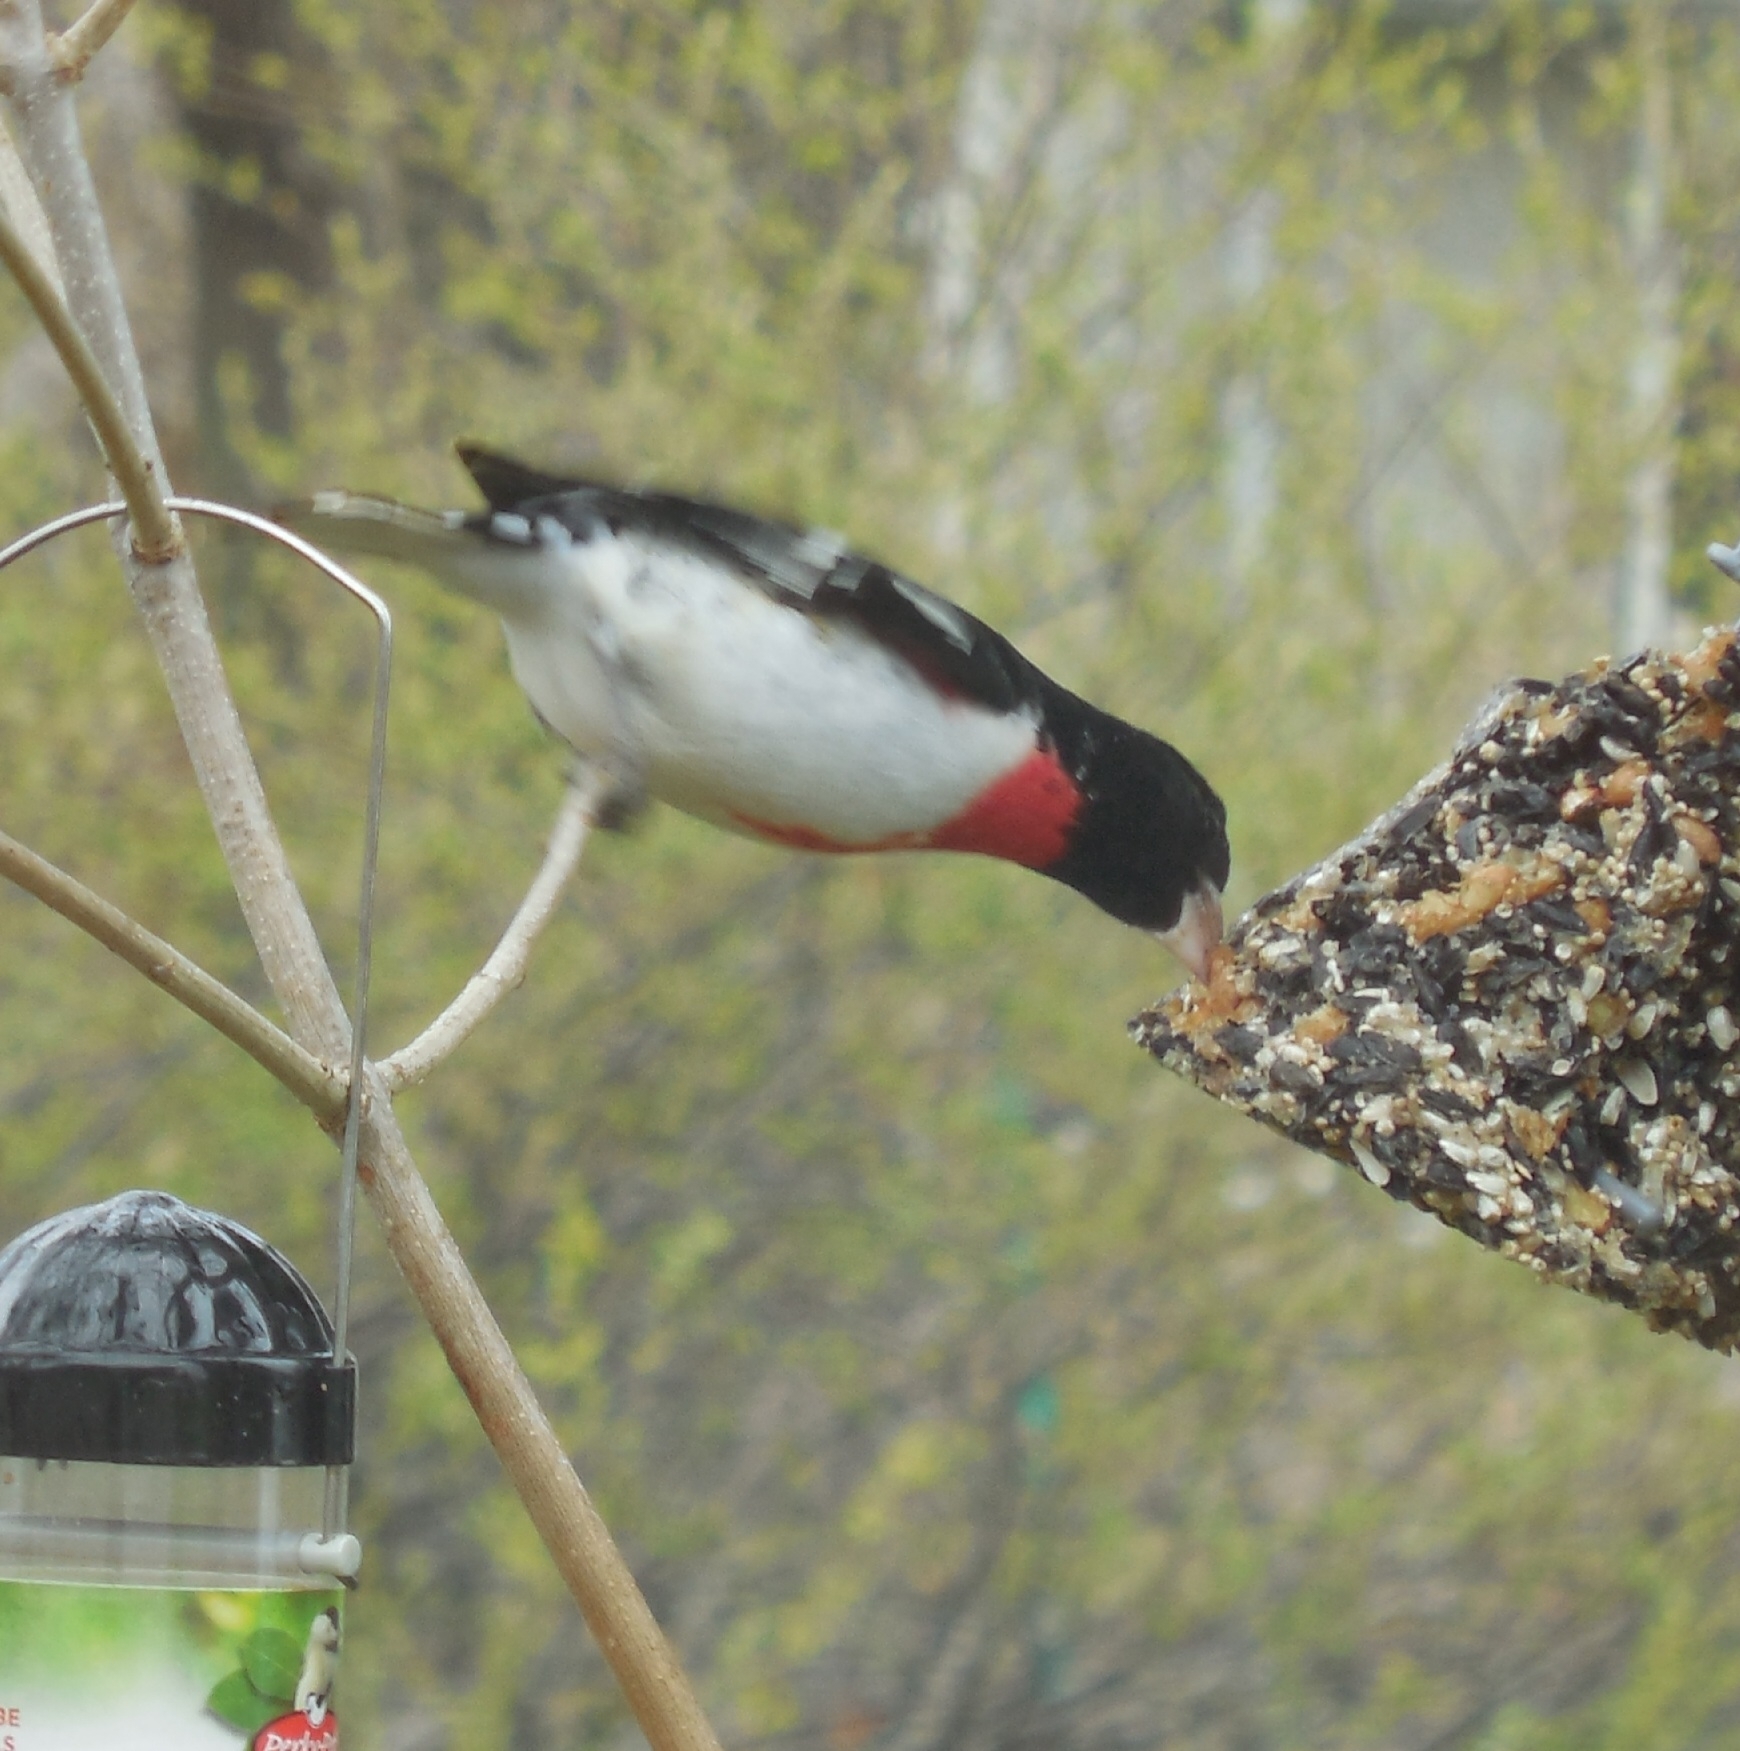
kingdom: Animalia
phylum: Chordata
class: Aves
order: Passeriformes
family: Cardinalidae
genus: Pheucticus
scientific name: Pheucticus ludovicianus
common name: Rose-breasted grosbeak
